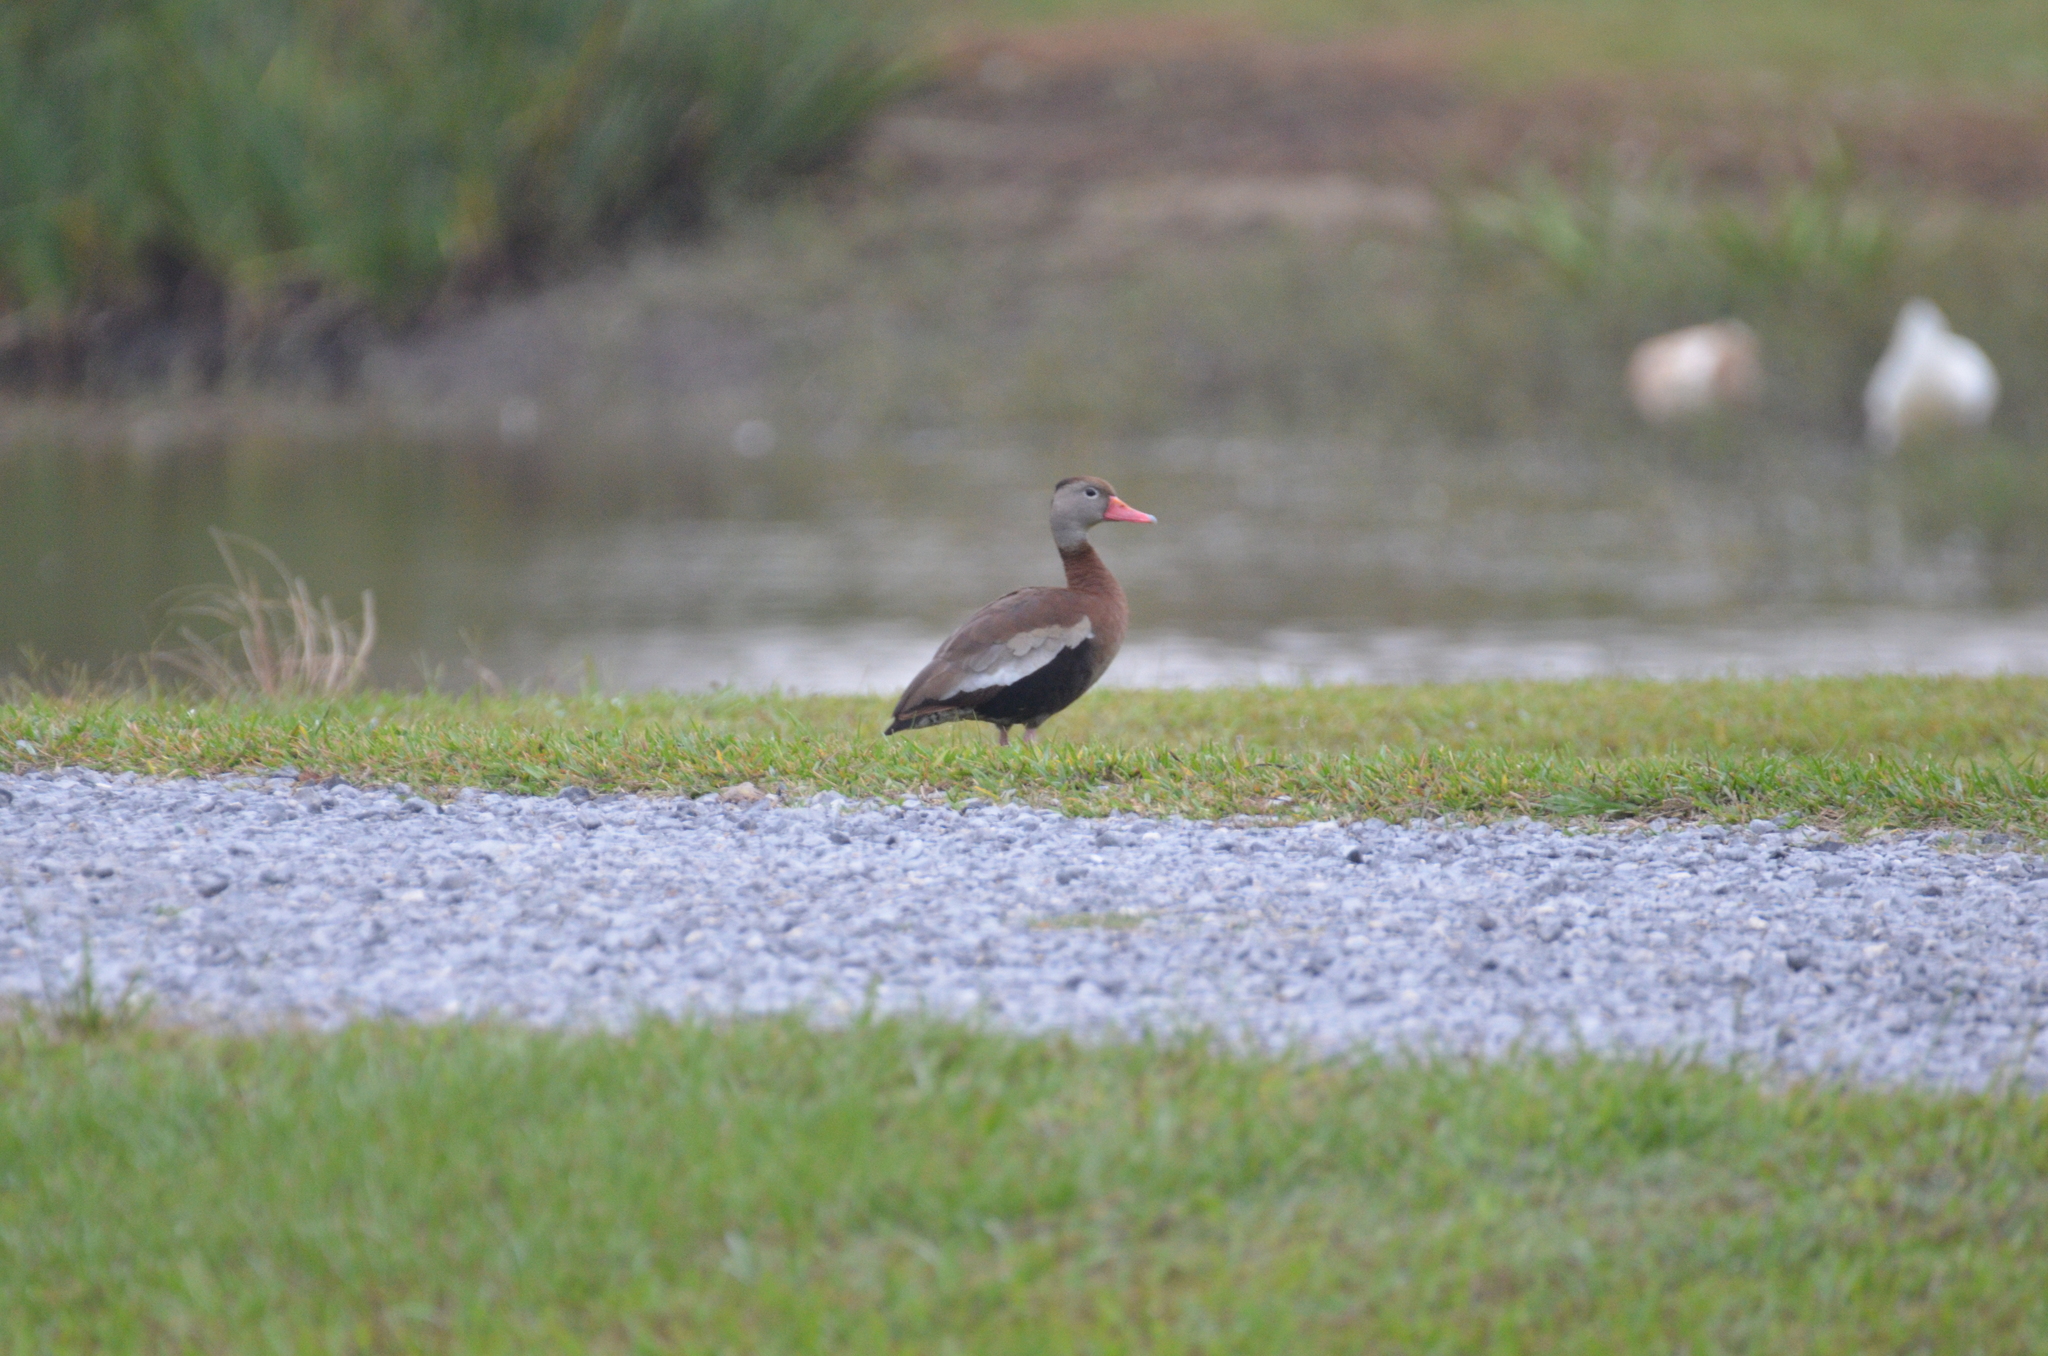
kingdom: Animalia
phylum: Chordata
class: Aves
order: Anseriformes
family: Anatidae
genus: Dendrocygna
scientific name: Dendrocygna autumnalis
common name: Black-bellied whistling duck
